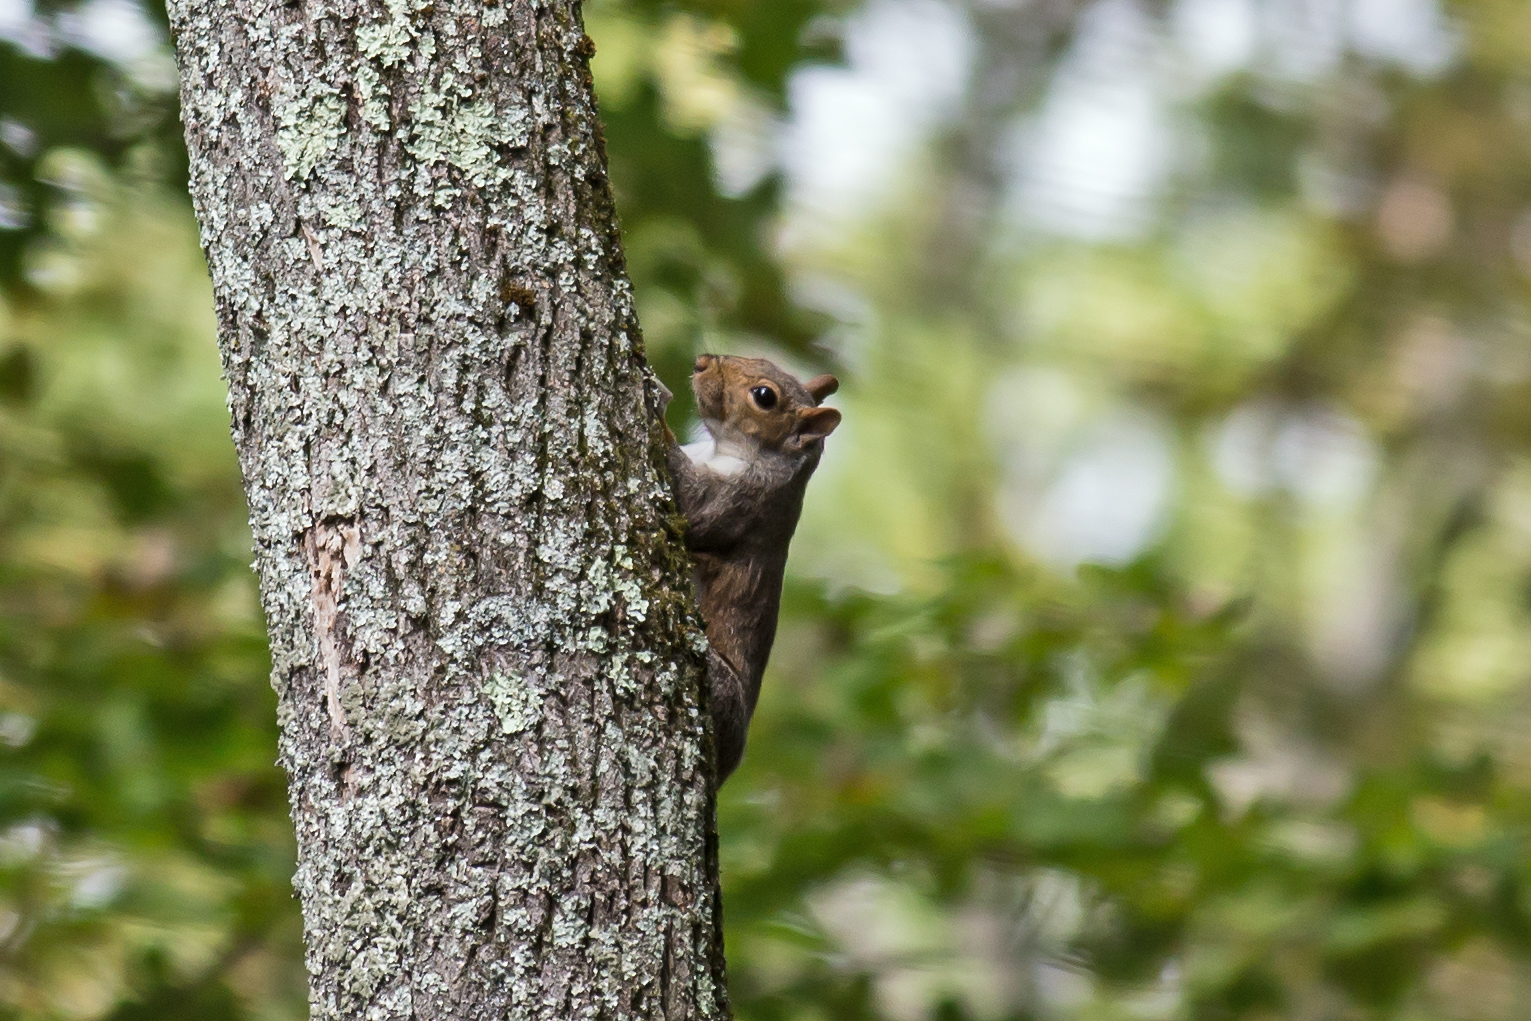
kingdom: Animalia
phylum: Chordata
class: Mammalia
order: Rodentia
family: Sciuridae
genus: Sciurus
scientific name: Sciurus carolinensis
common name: Eastern gray squirrel
